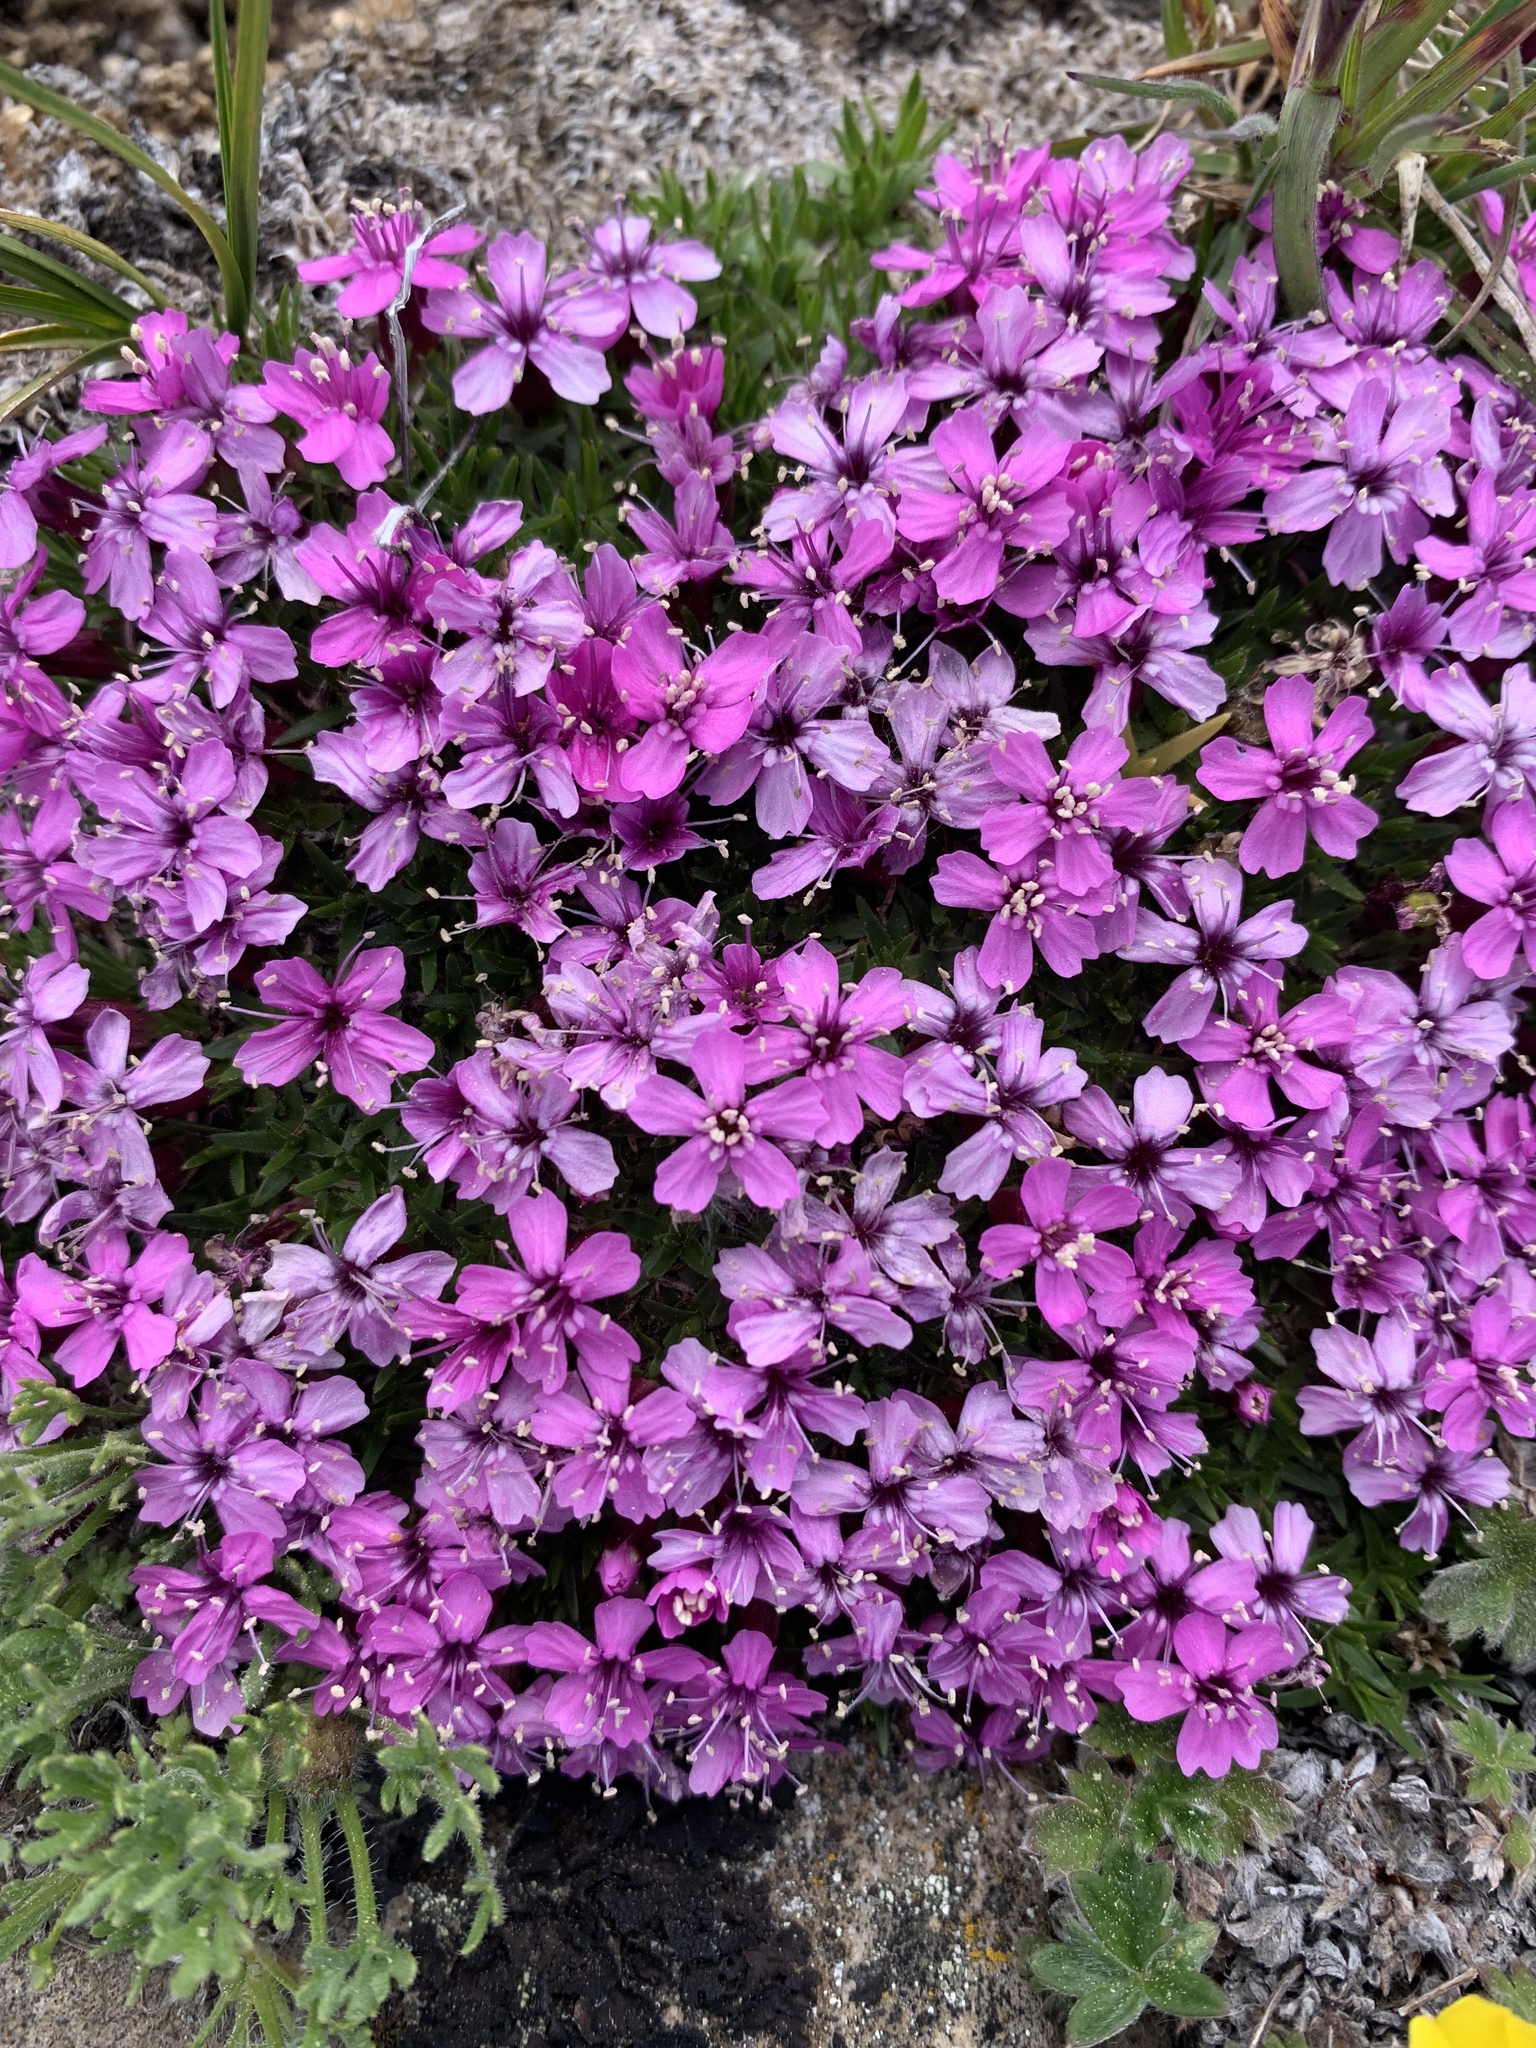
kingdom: Plantae
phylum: Tracheophyta
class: Magnoliopsida
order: Caryophyllales
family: Caryophyllaceae
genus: Silene
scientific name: Silene acaulis
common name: Moss campion
